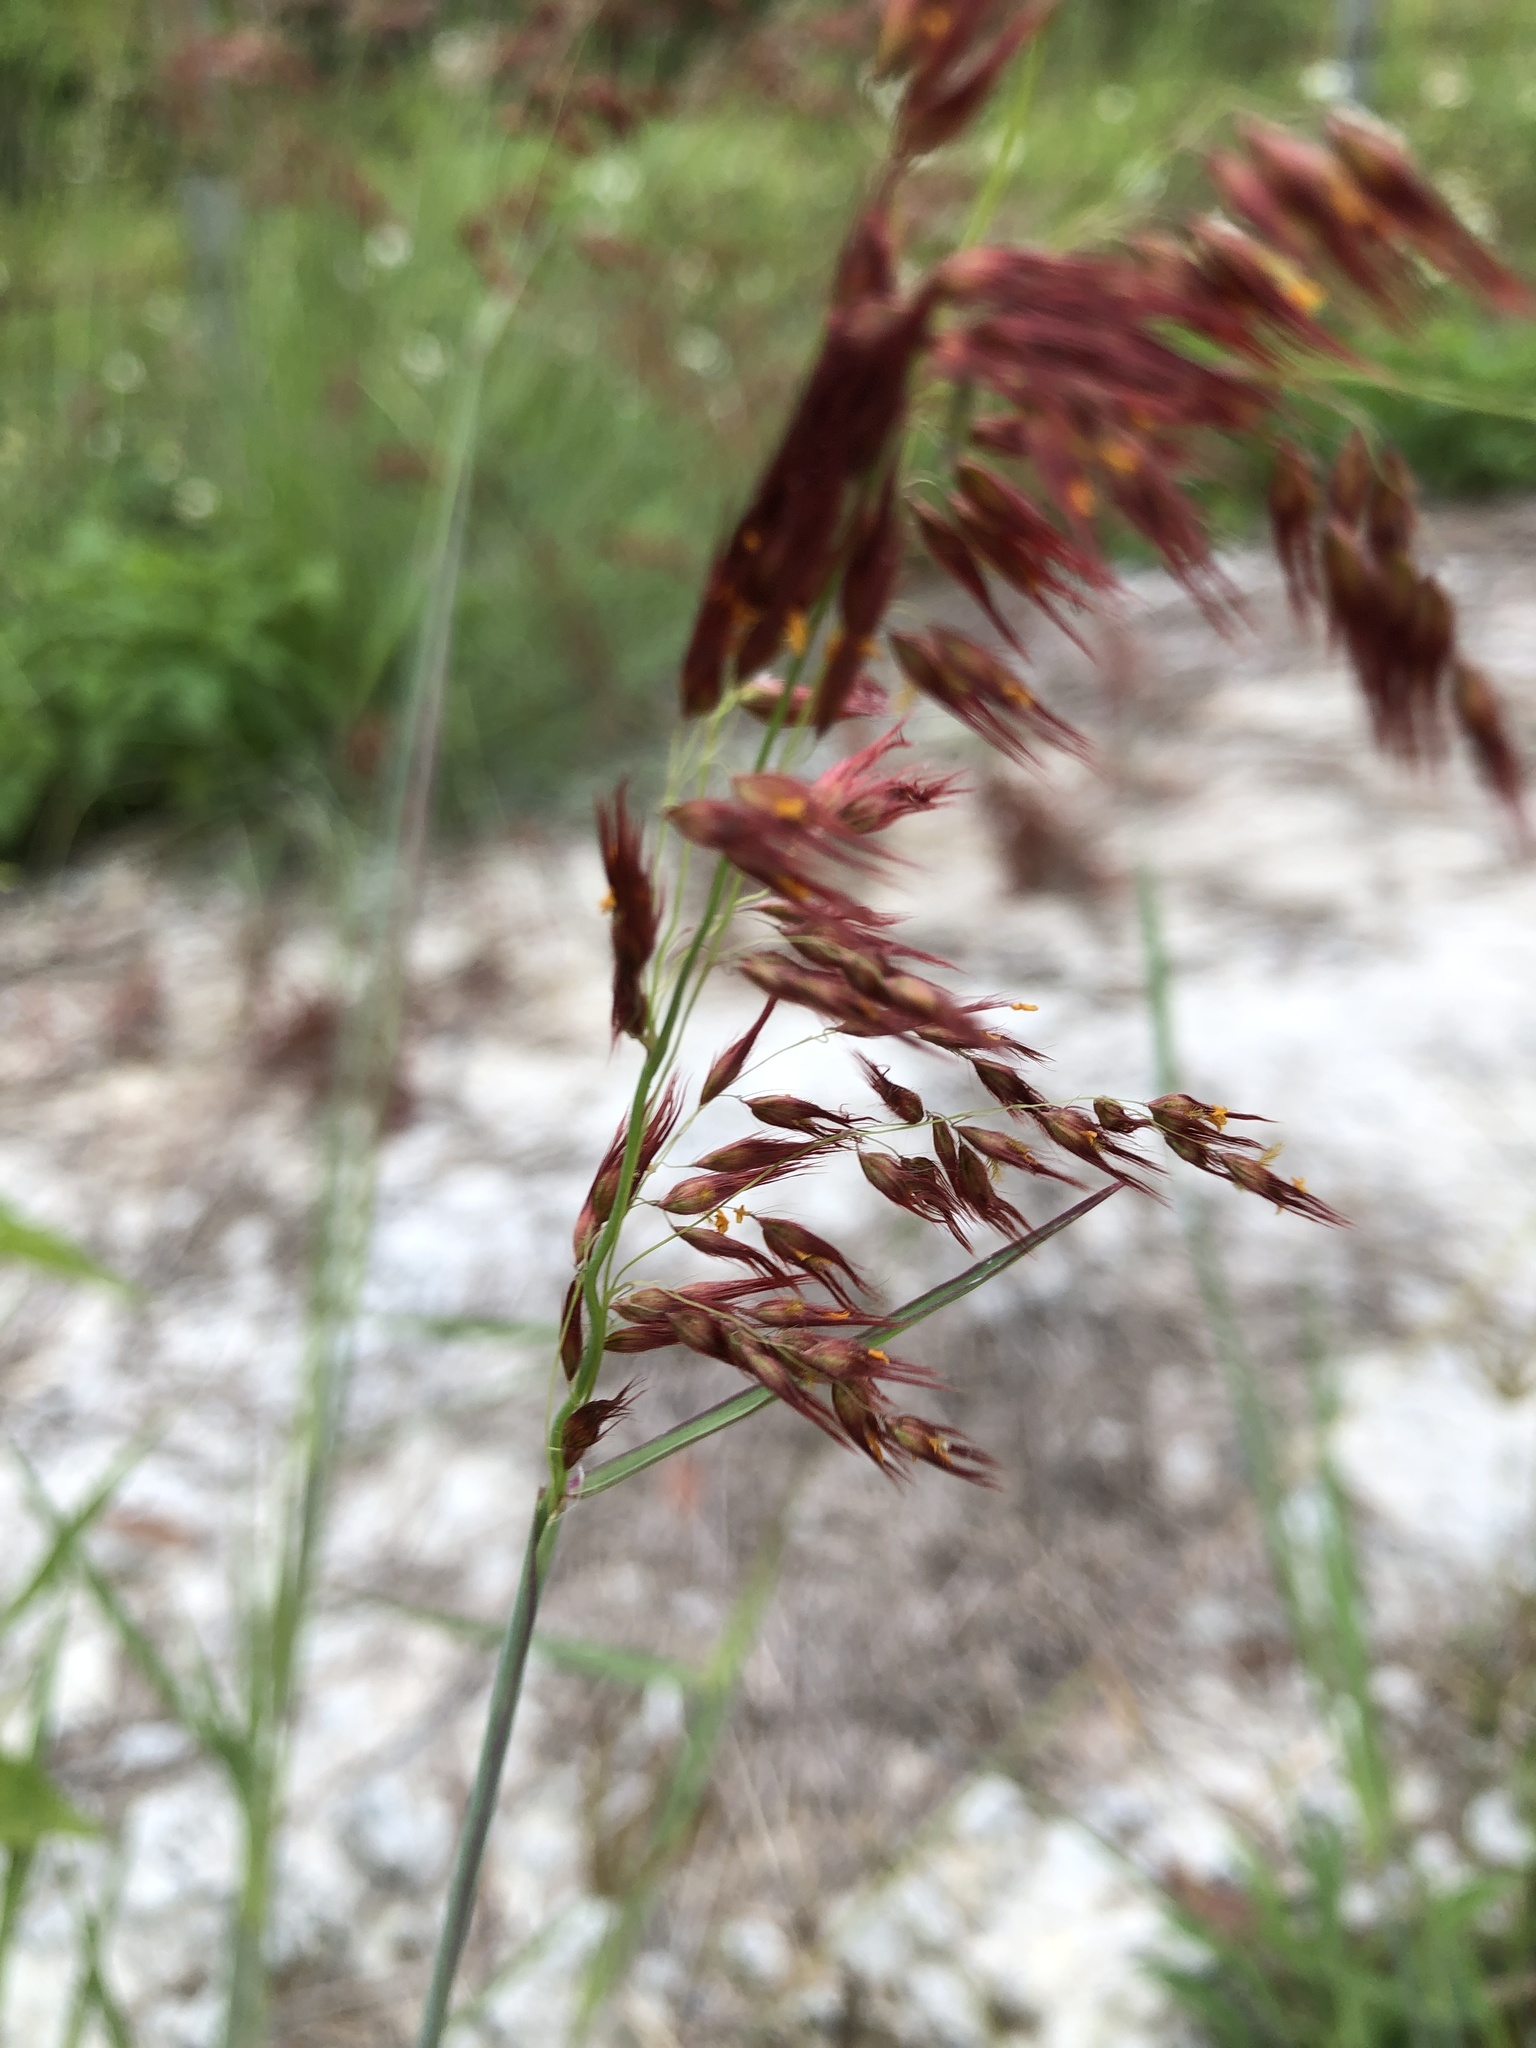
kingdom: Plantae
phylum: Tracheophyta
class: Liliopsida
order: Poales
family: Poaceae
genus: Melinis
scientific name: Melinis repens
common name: Rose natal grass
